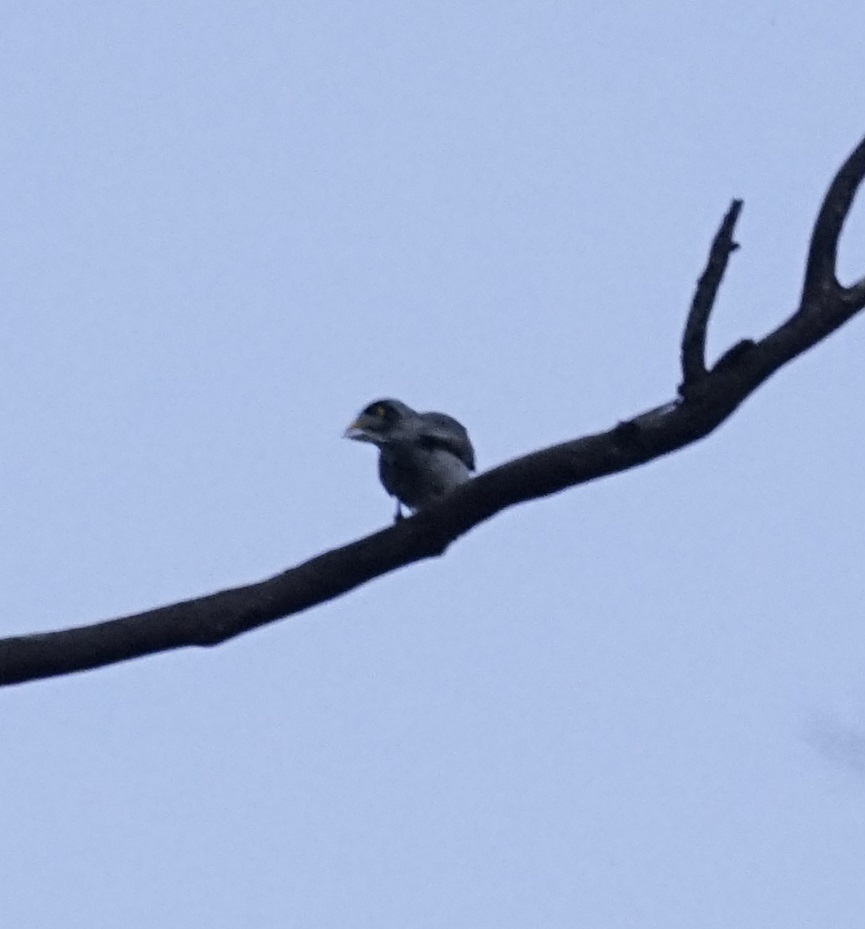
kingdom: Animalia
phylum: Chordata
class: Aves
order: Passeriformes
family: Meliphagidae
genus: Manorina
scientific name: Manorina melanocephala
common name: Noisy miner
